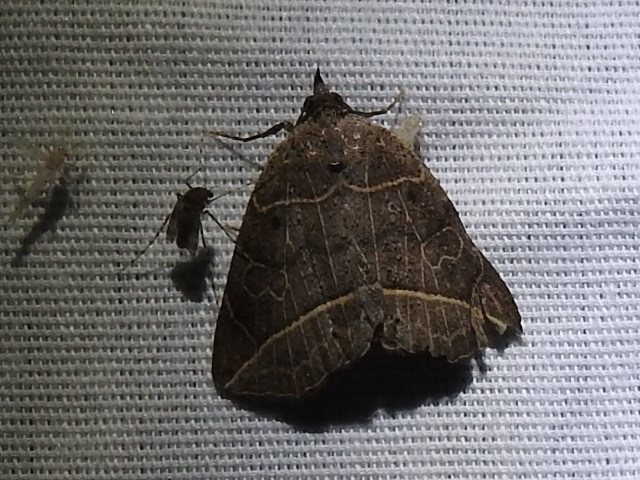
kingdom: Animalia
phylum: Arthropoda
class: Insecta
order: Lepidoptera
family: Erebidae
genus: Isogona
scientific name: Isogona tenuis
